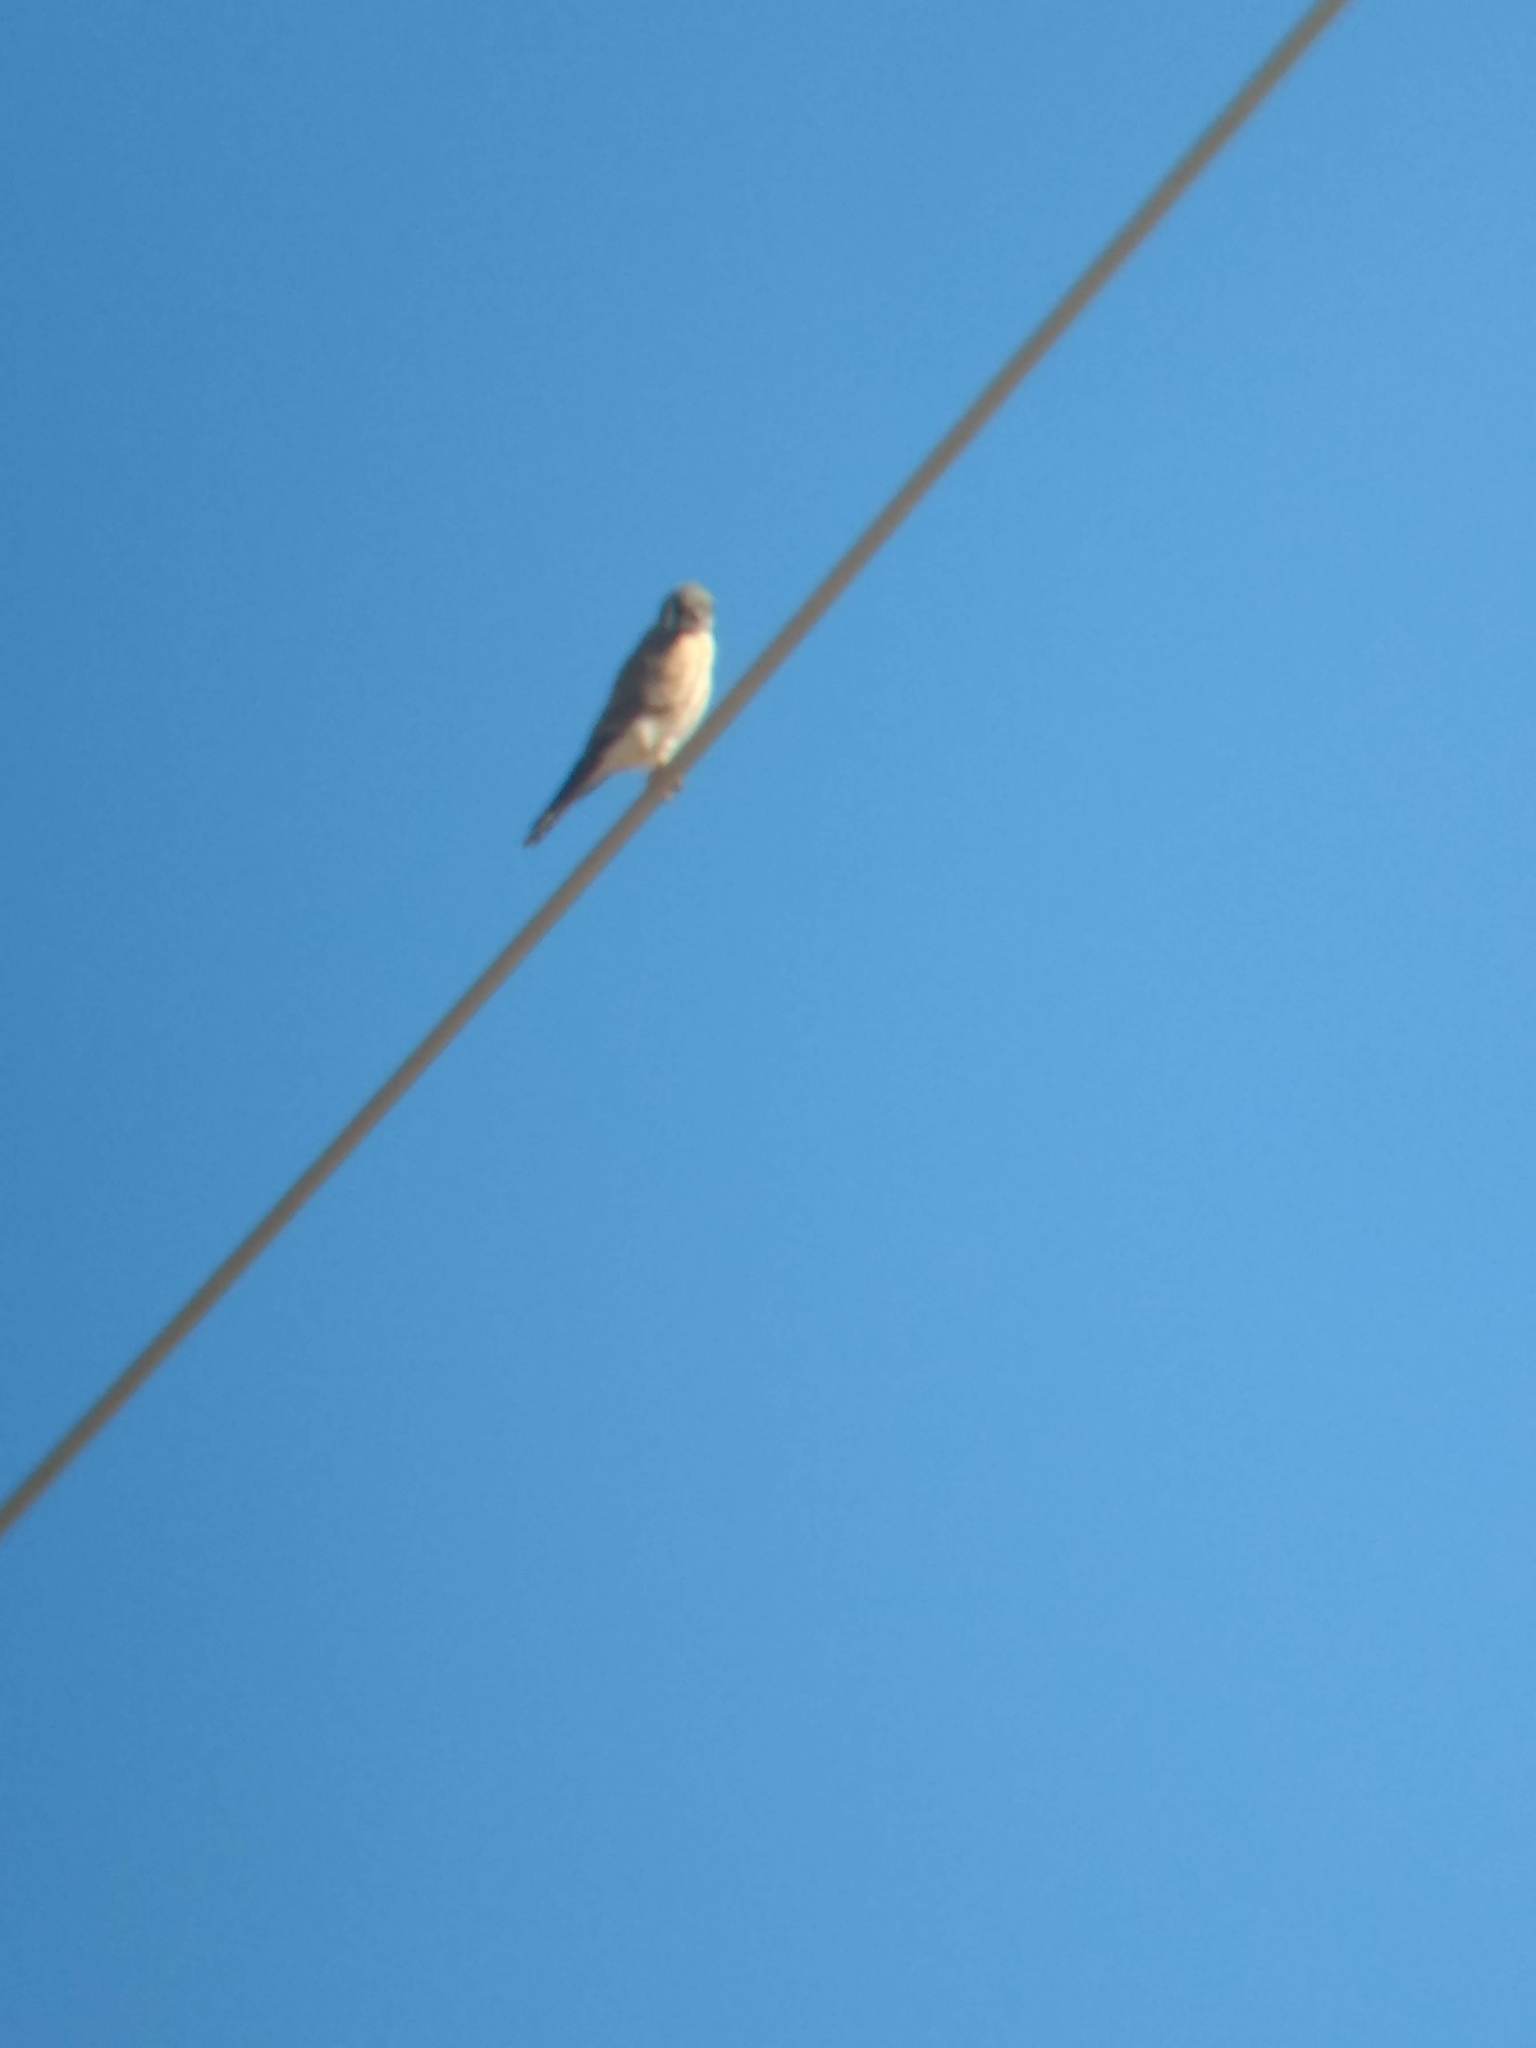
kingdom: Animalia
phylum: Chordata
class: Aves
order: Falconiformes
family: Falconidae
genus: Falco
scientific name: Falco sparverius
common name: American kestrel
